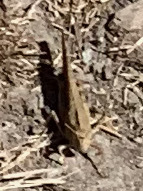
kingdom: Animalia
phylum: Arthropoda
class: Insecta
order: Orthoptera
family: Acrididae
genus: Dissosteira
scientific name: Dissosteira carolina
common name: Carolina grasshopper
